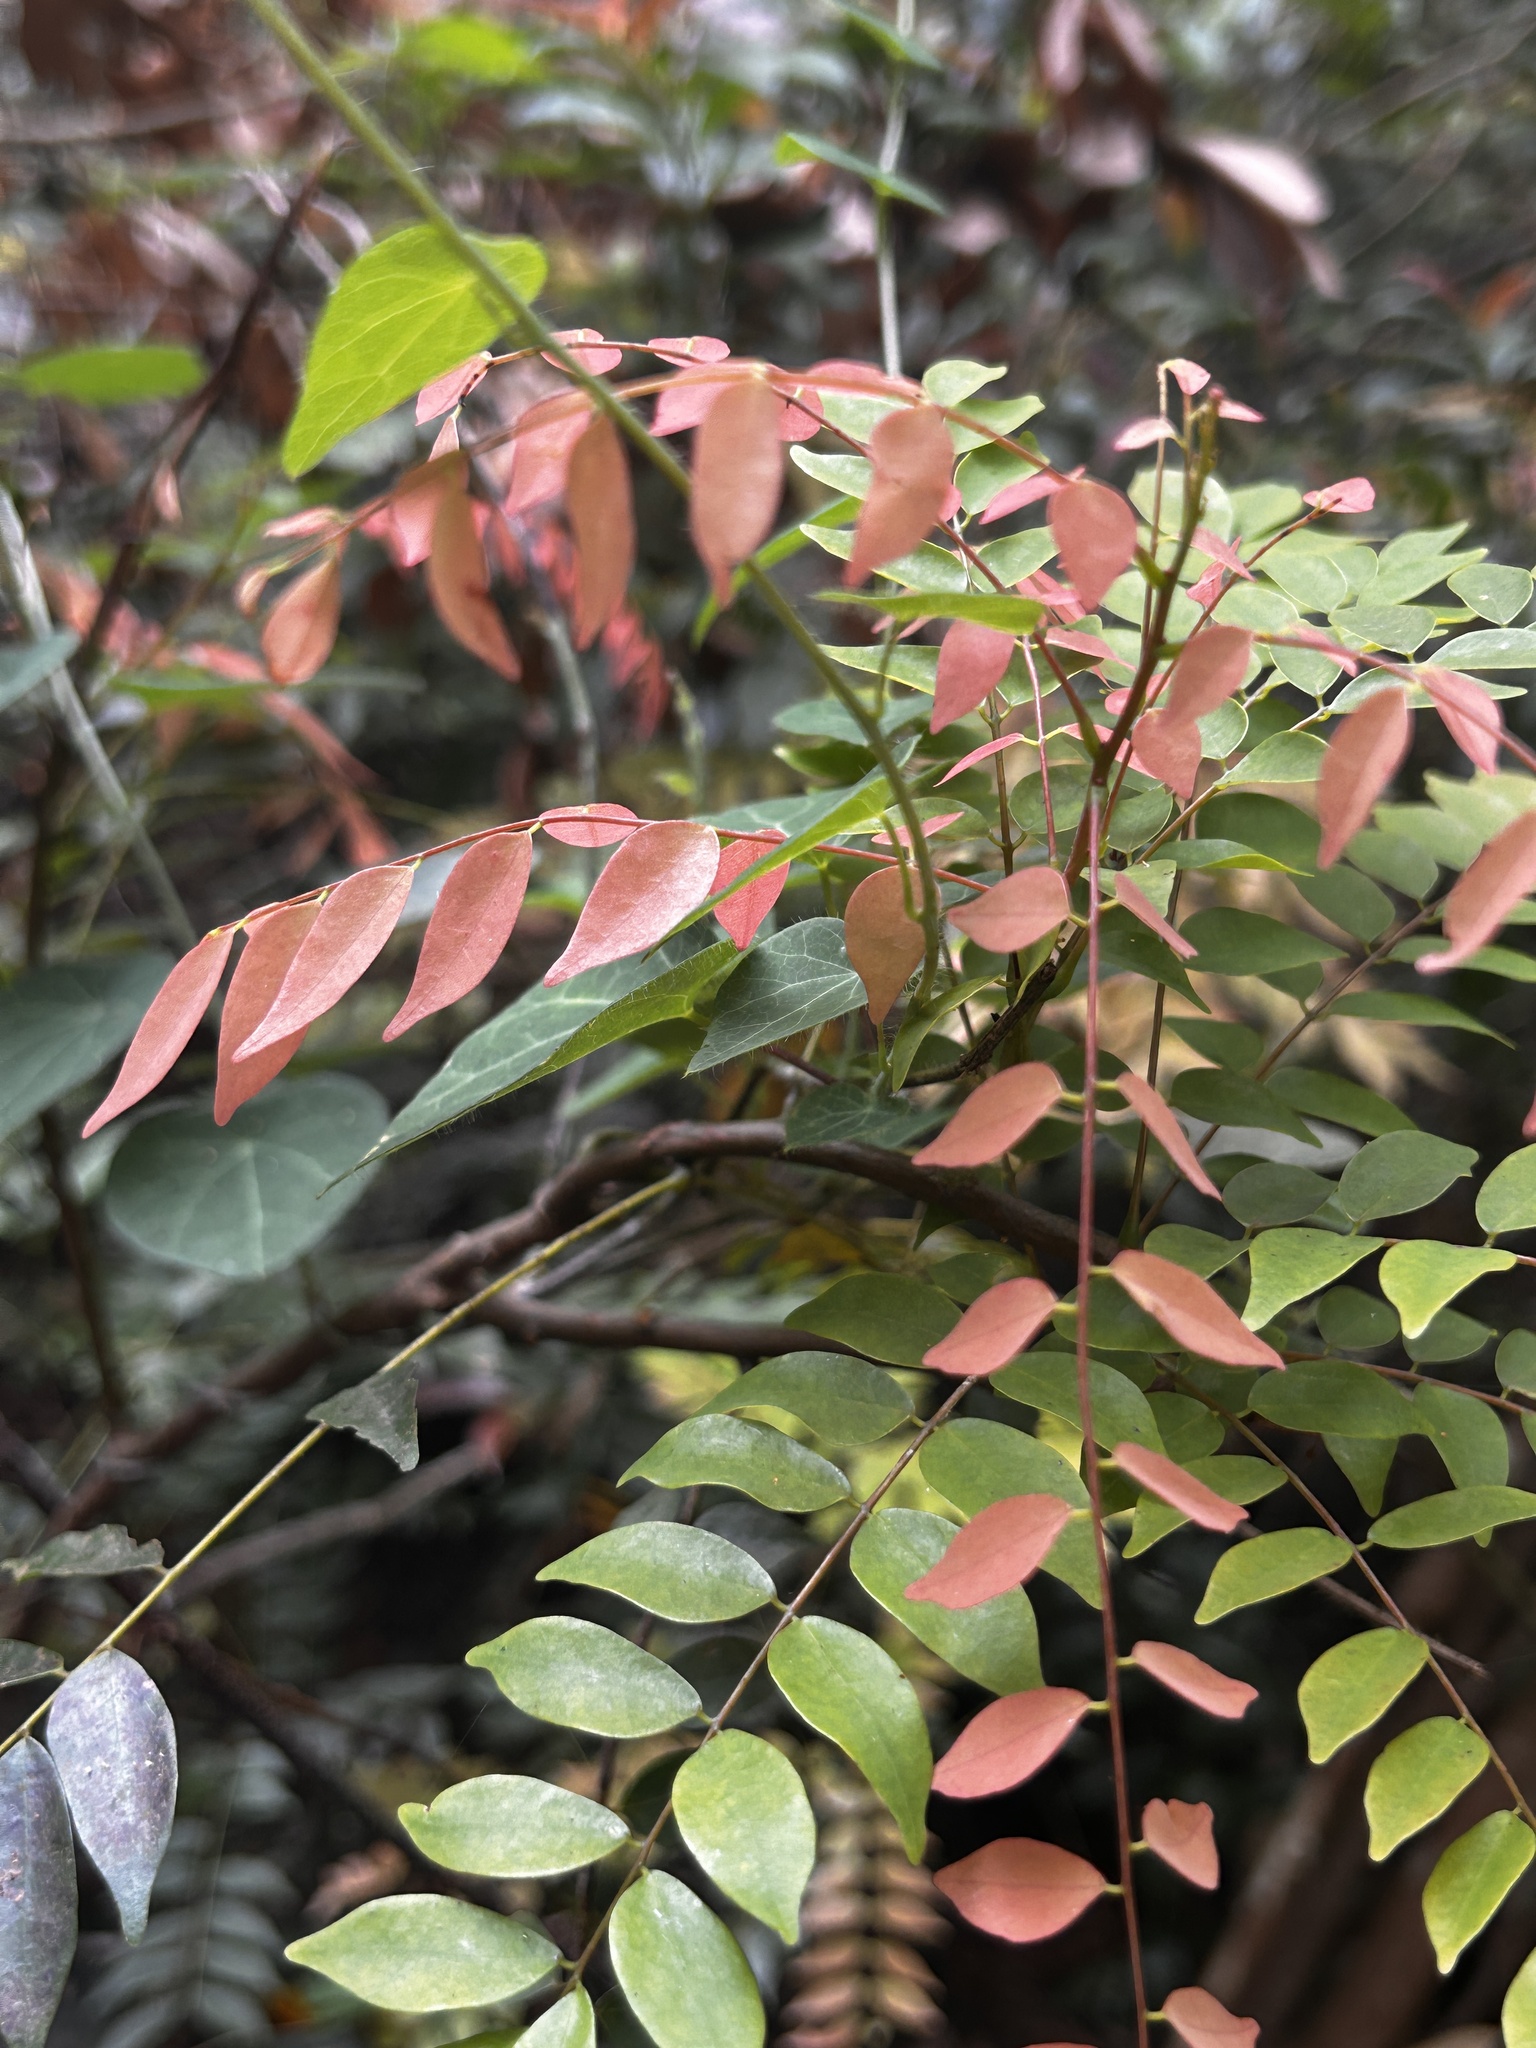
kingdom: Plantae
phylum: Tracheophyta
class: Magnoliopsida
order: Oxalidales
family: Connaraceae
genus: Rourea
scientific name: Rourea microphylla
